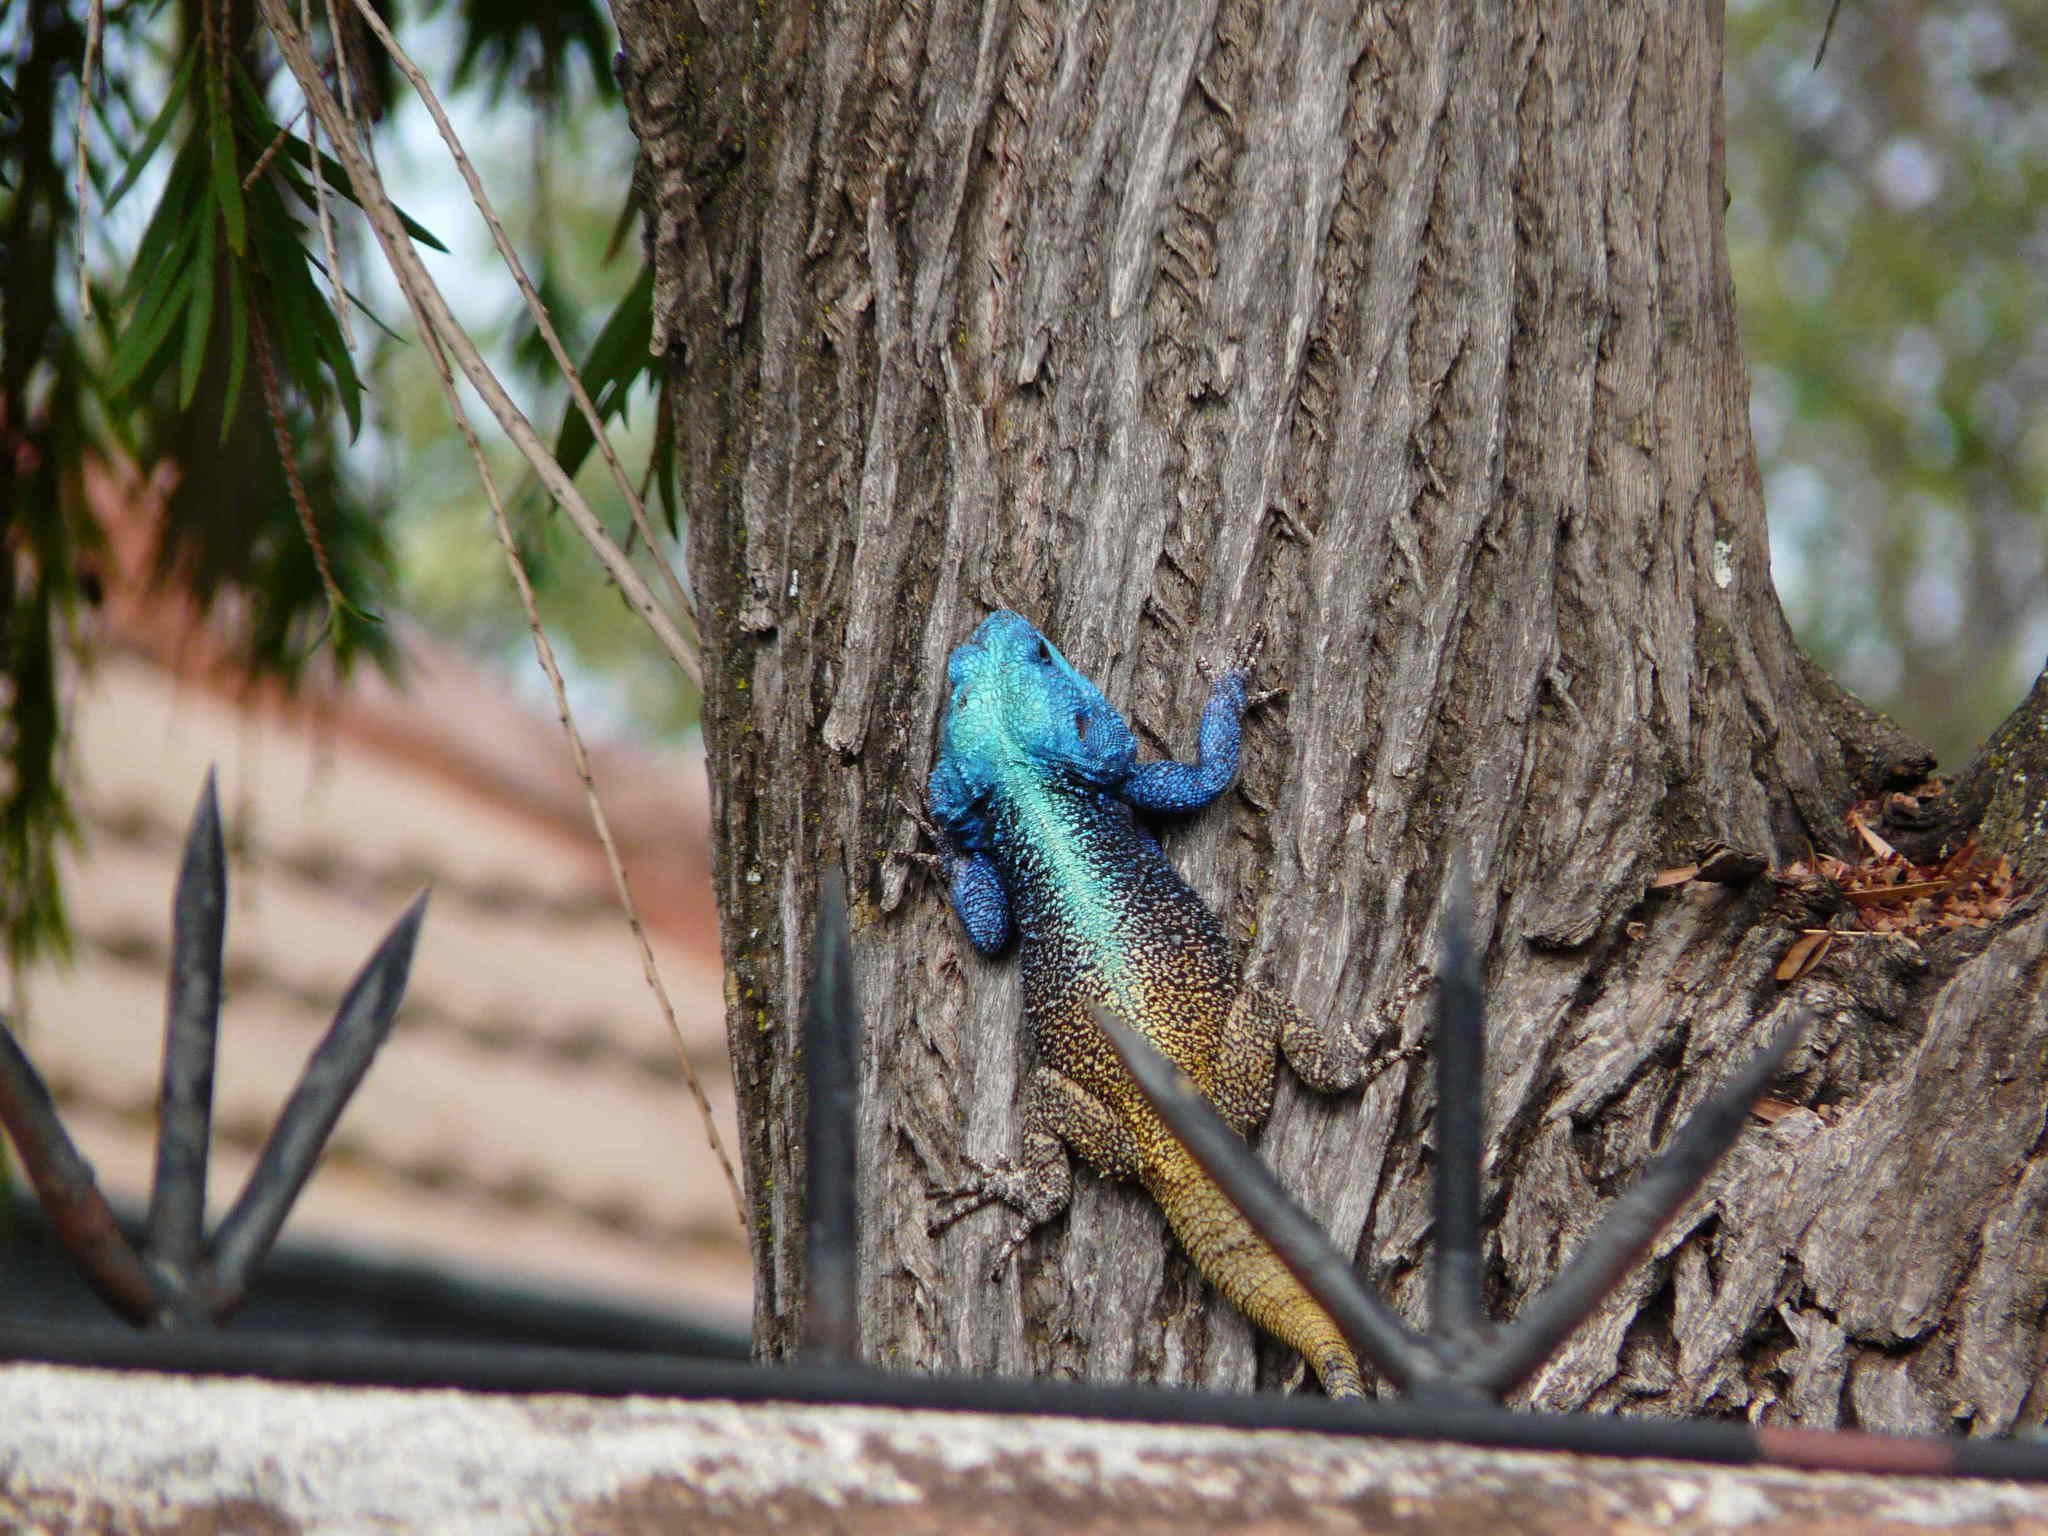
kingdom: Animalia
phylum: Chordata
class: Squamata
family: Agamidae
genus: Acanthocercus
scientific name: Acanthocercus atricollis
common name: Southern tree agama
